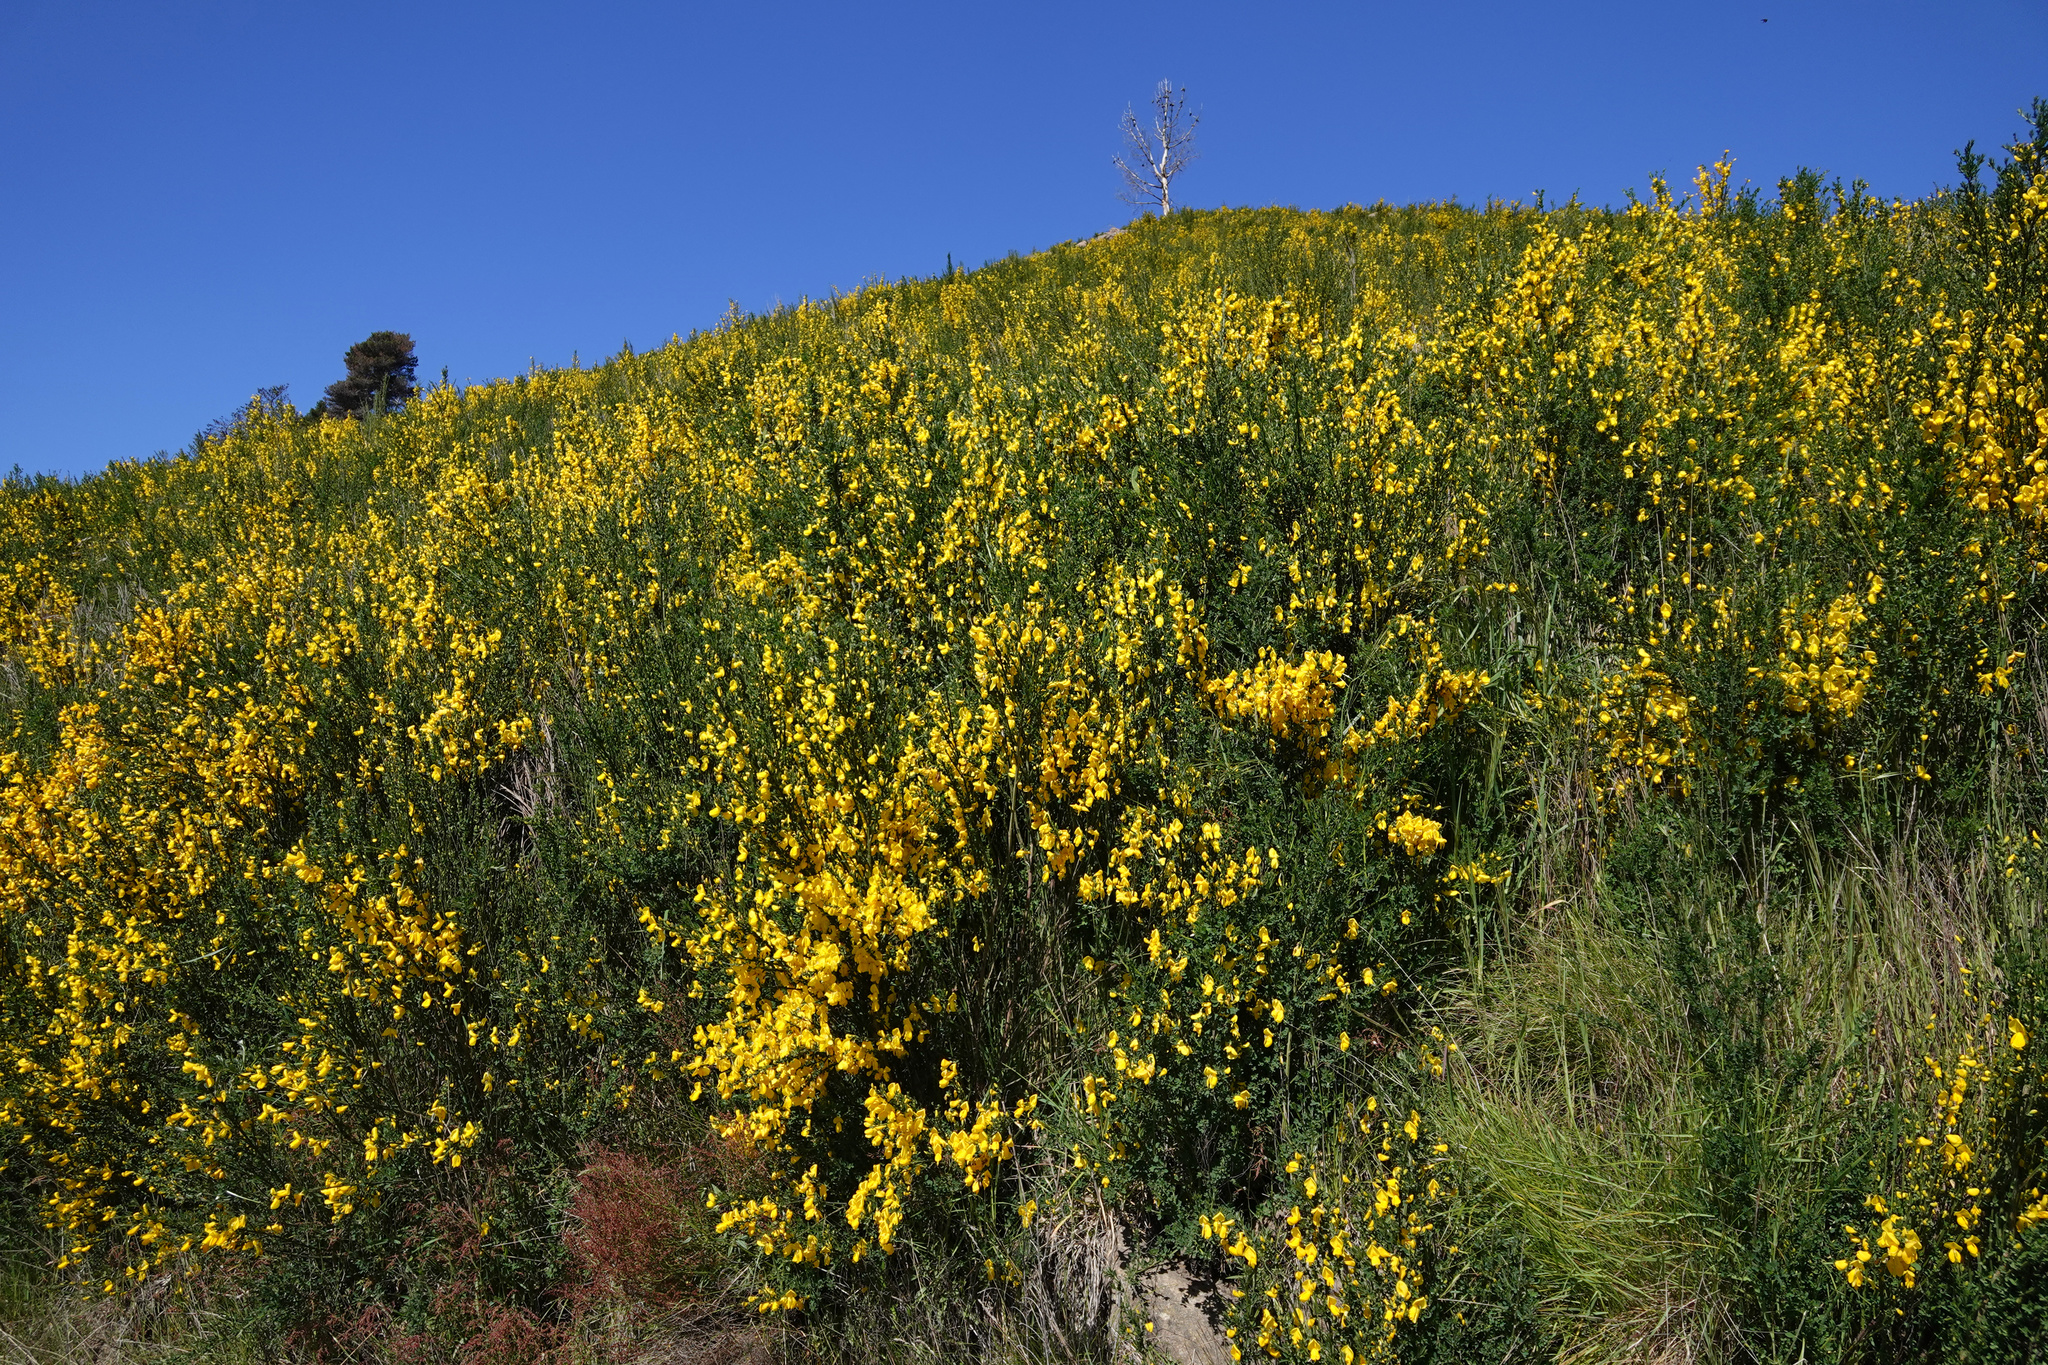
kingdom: Plantae
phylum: Tracheophyta
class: Magnoliopsida
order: Fabales
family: Fabaceae
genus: Cytisus
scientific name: Cytisus scoparius
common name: Scotch broom
